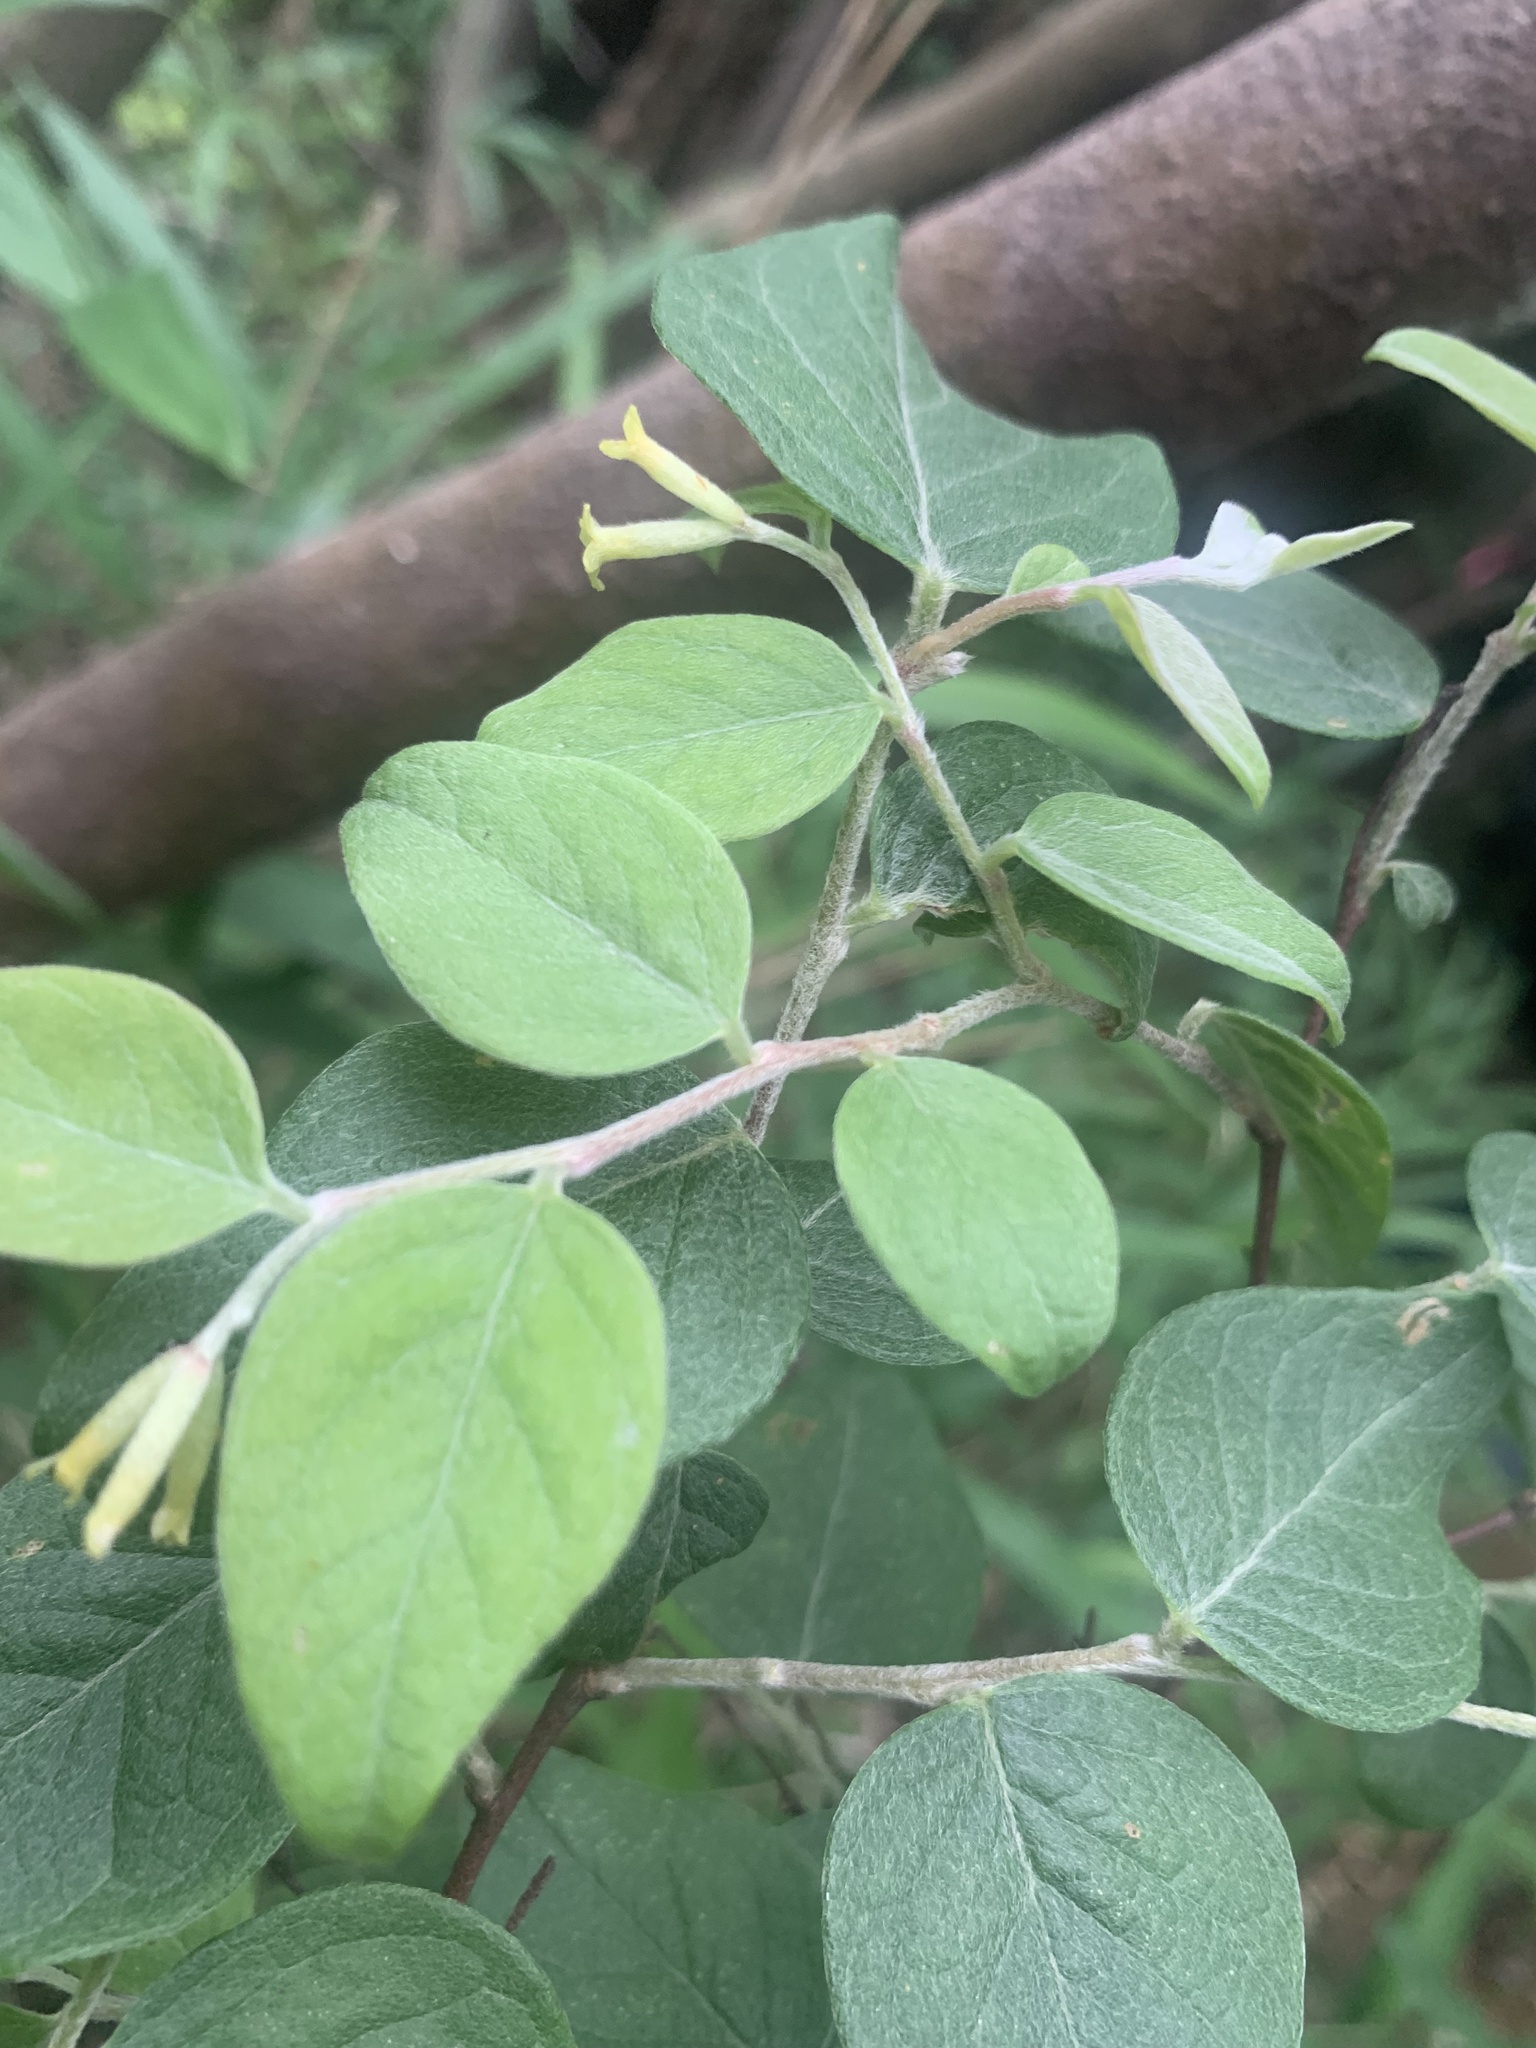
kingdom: Plantae
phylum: Tracheophyta
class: Magnoliopsida
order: Malvales
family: Thymelaeaceae
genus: Wikstroemia
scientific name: Wikstroemia sikokiana
